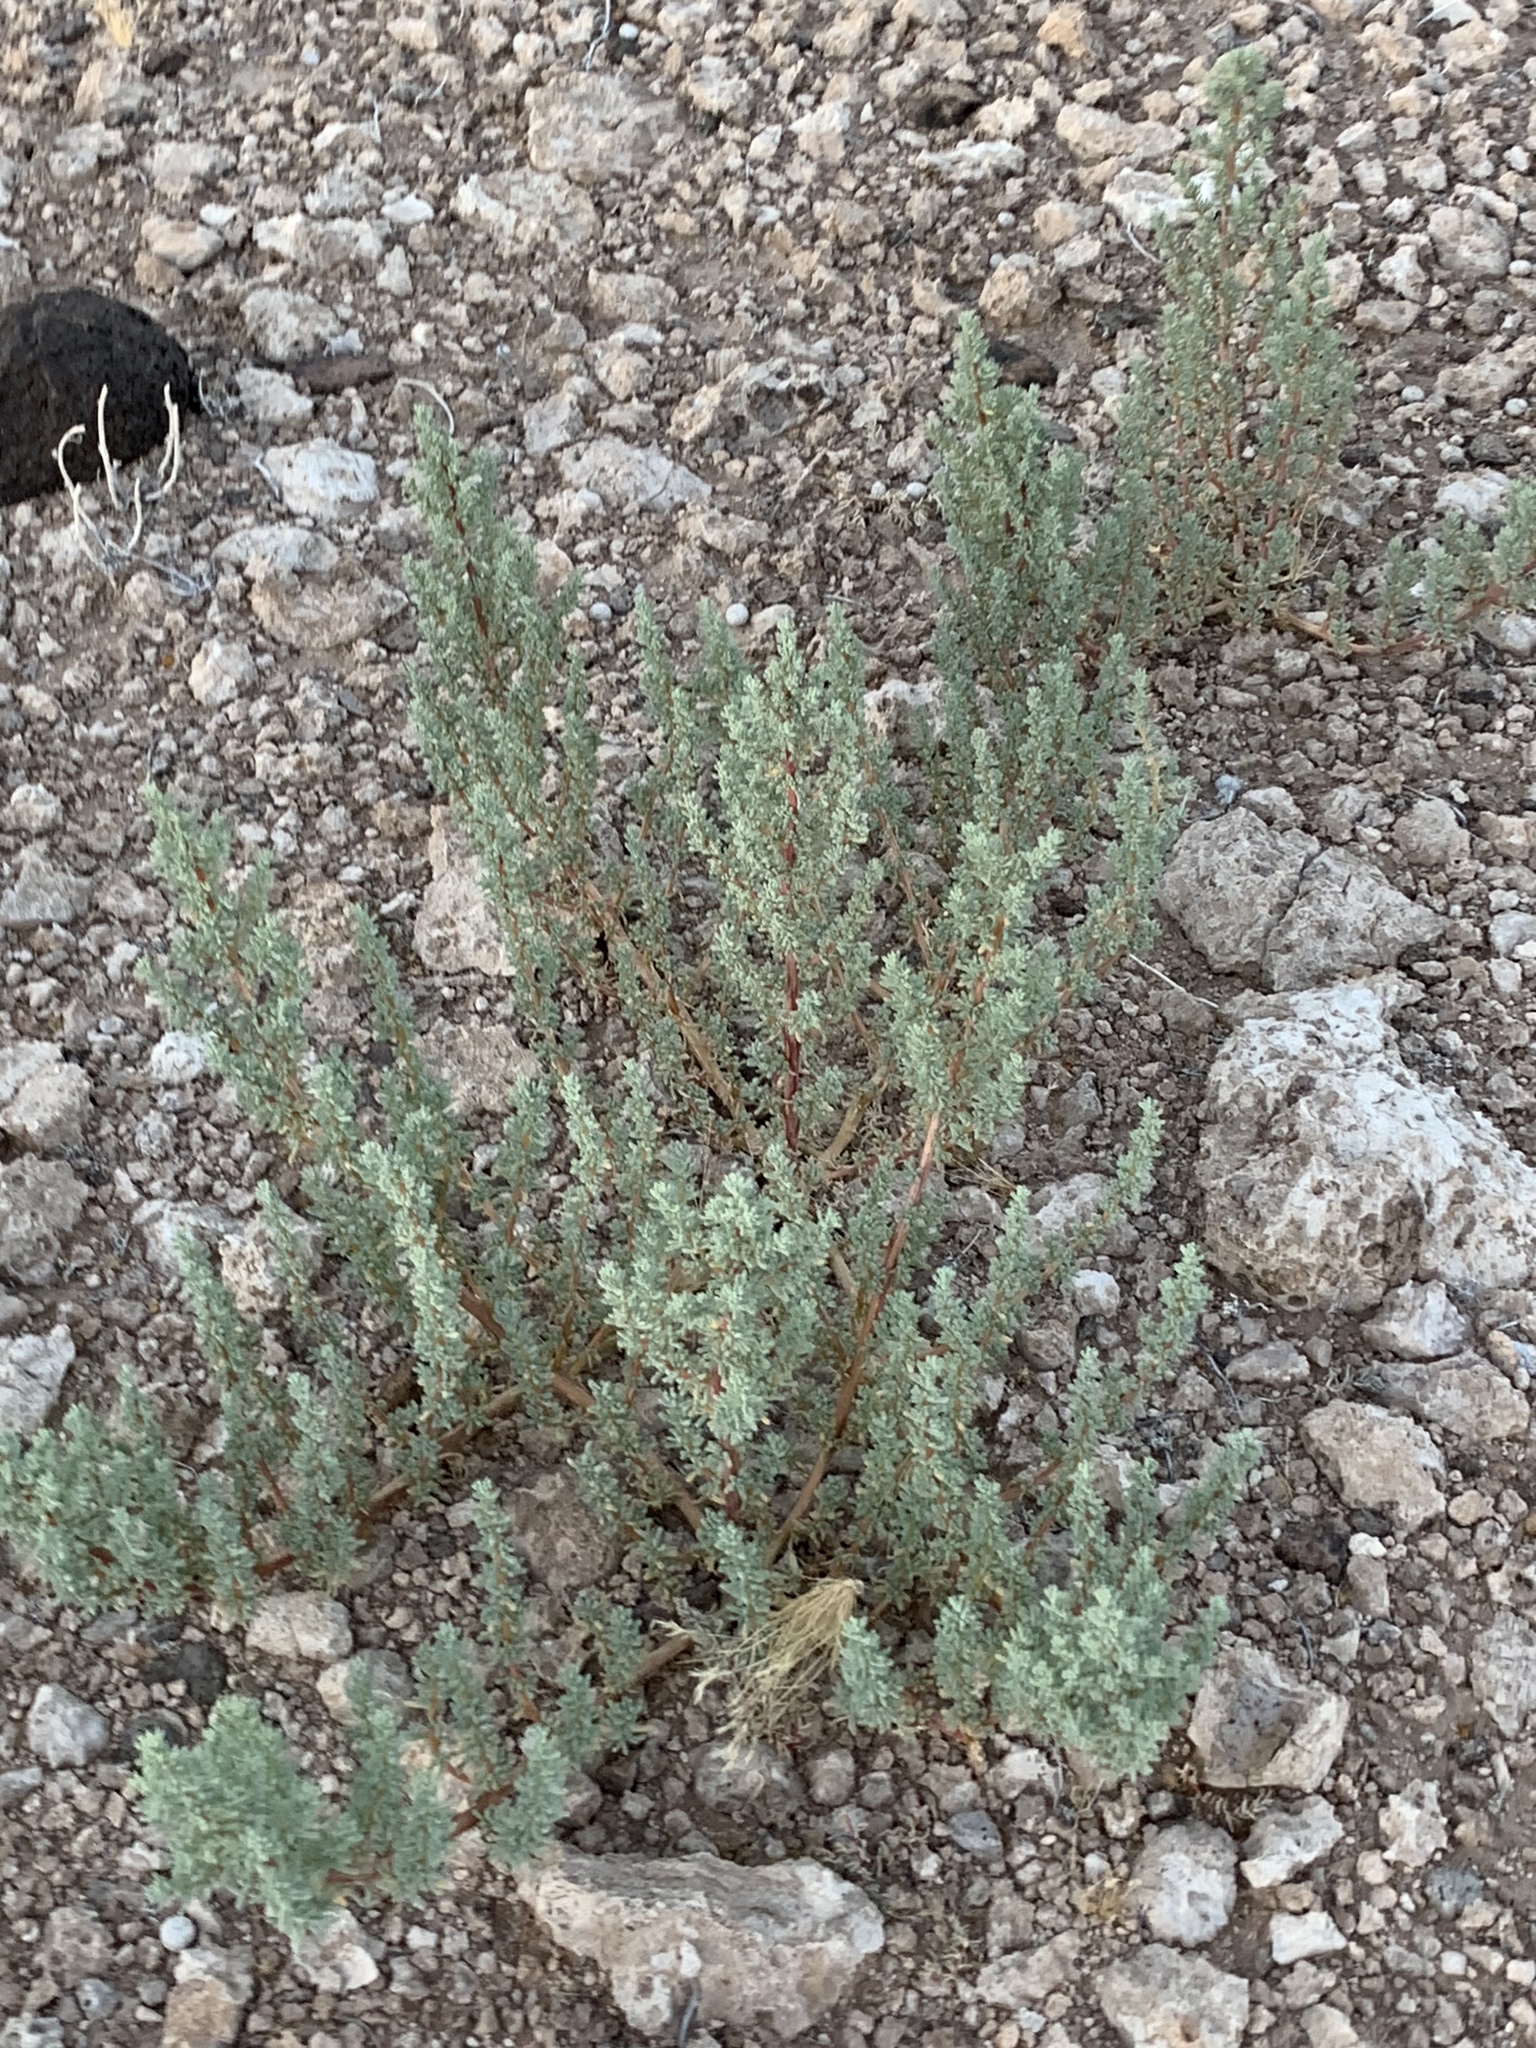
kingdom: Plantae
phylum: Tracheophyta
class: Magnoliopsida
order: Caryophyllales
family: Amaranthaceae
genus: Halogeton
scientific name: Halogeton glomeratus
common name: Saltlover
